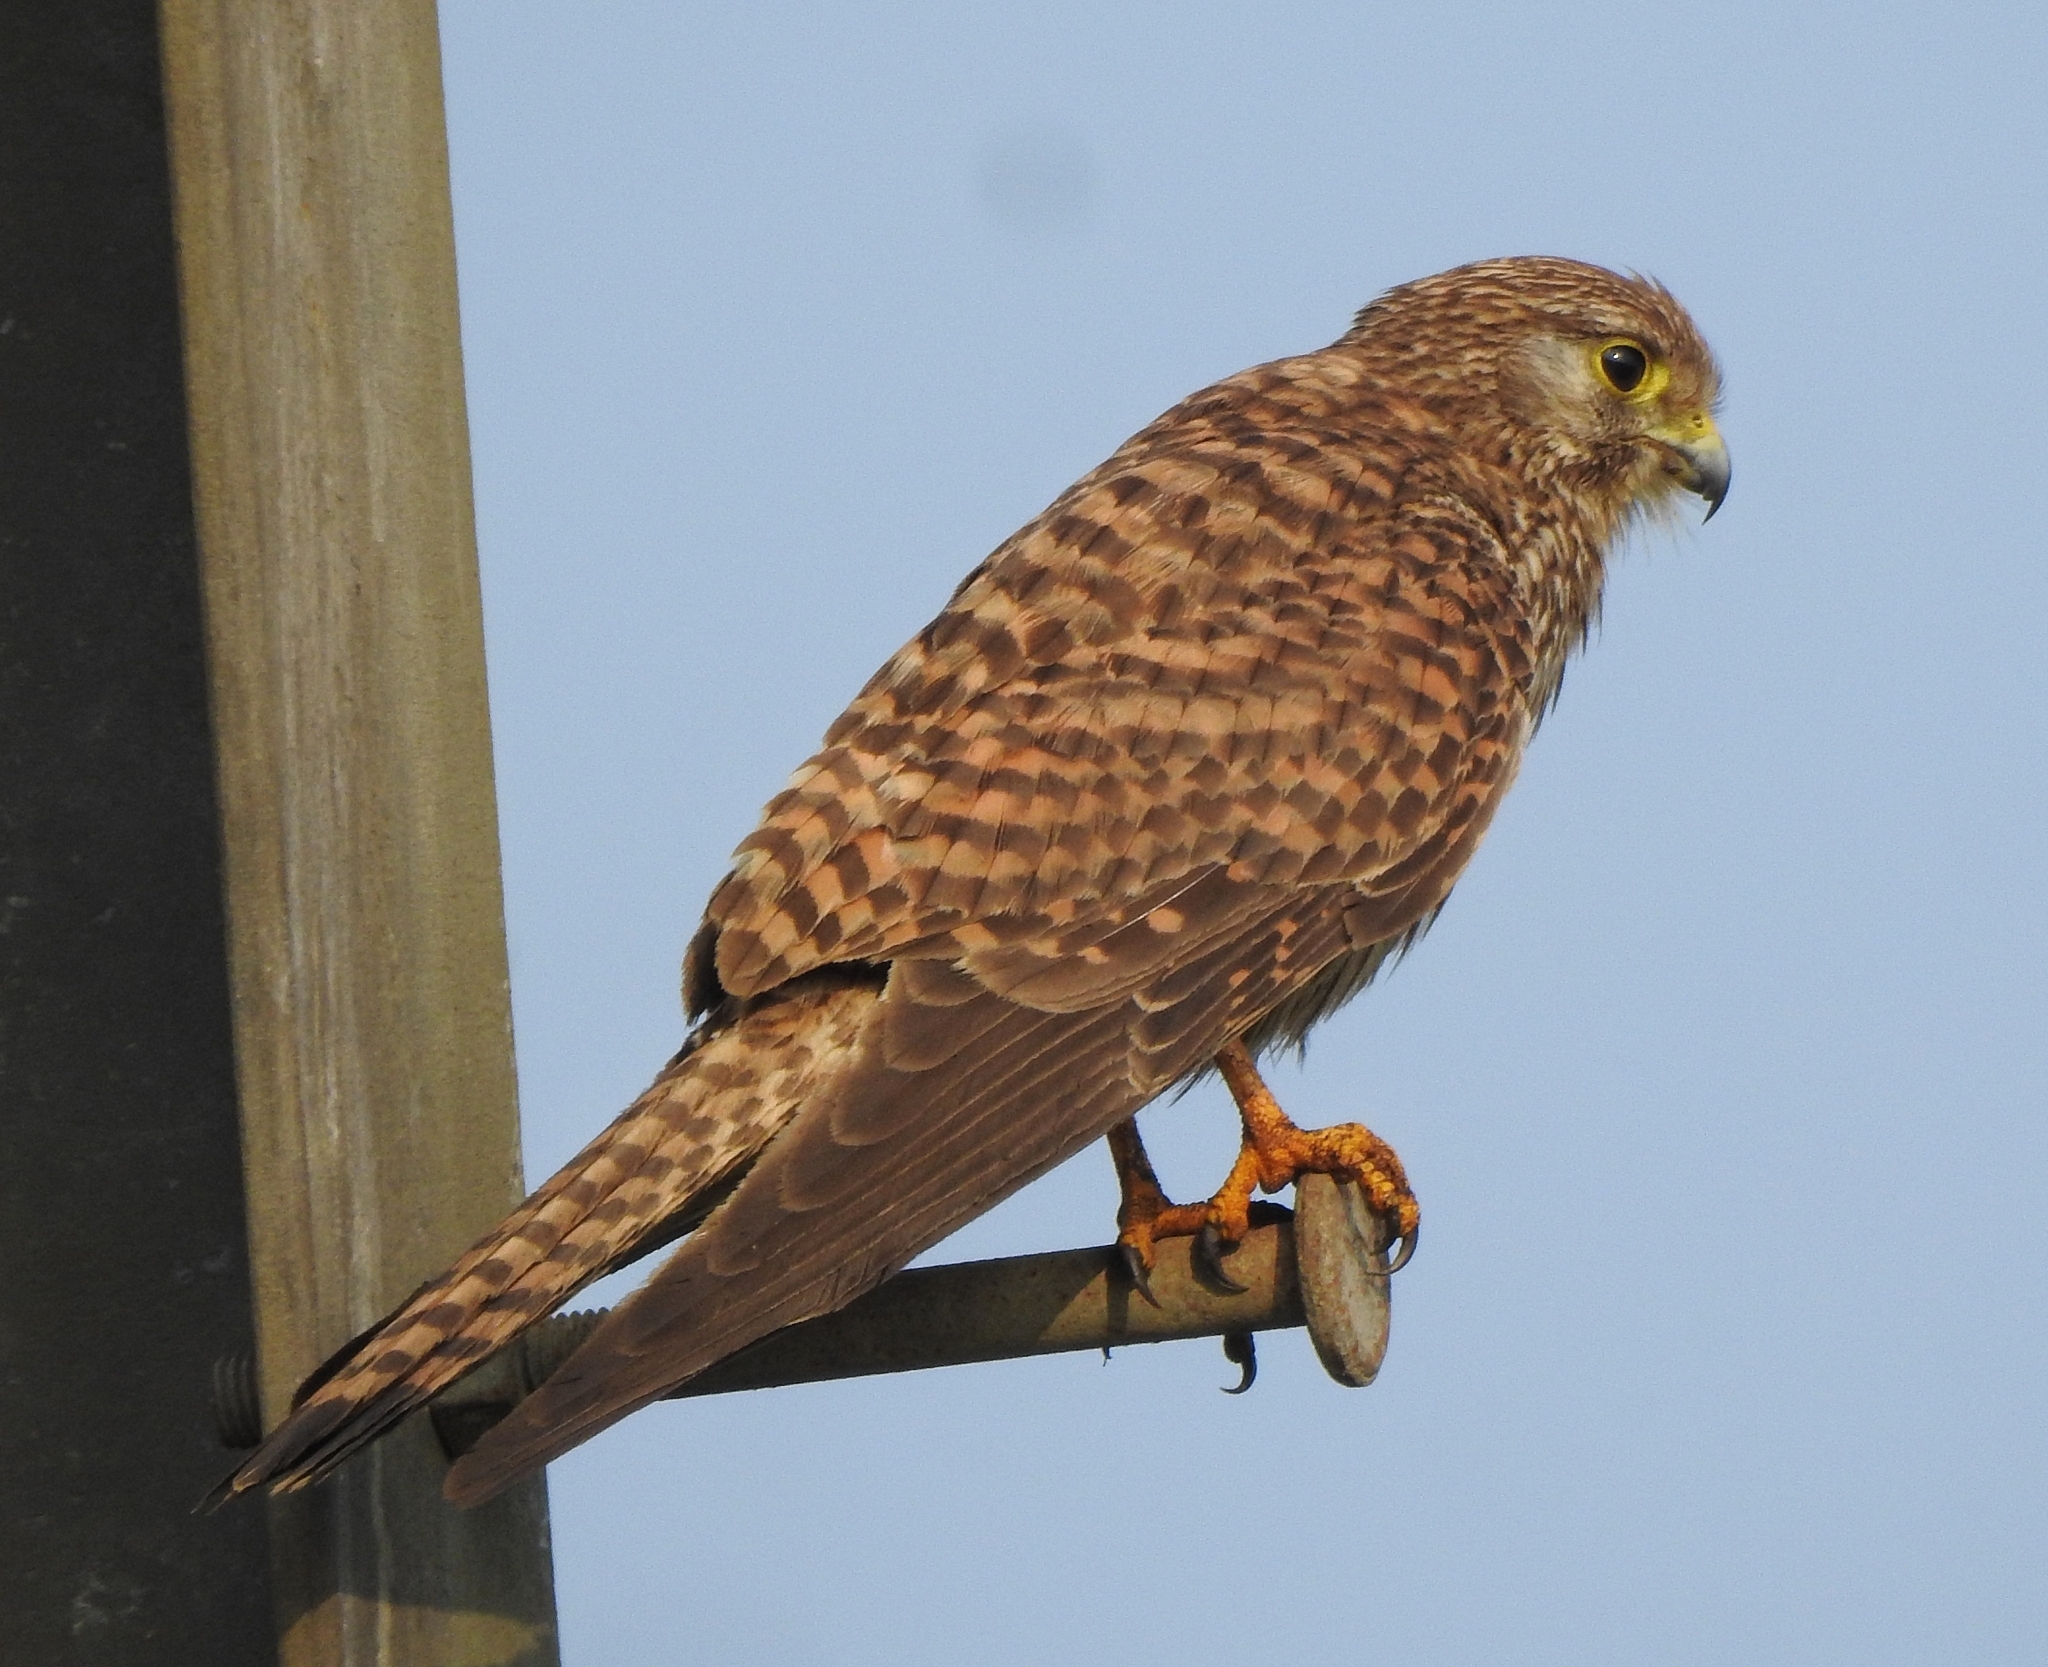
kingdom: Animalia
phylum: Chordata
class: Aves
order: Falconiformes
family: Falconidae
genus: Falco
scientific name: Falco tinnunculus
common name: Common kestrel
